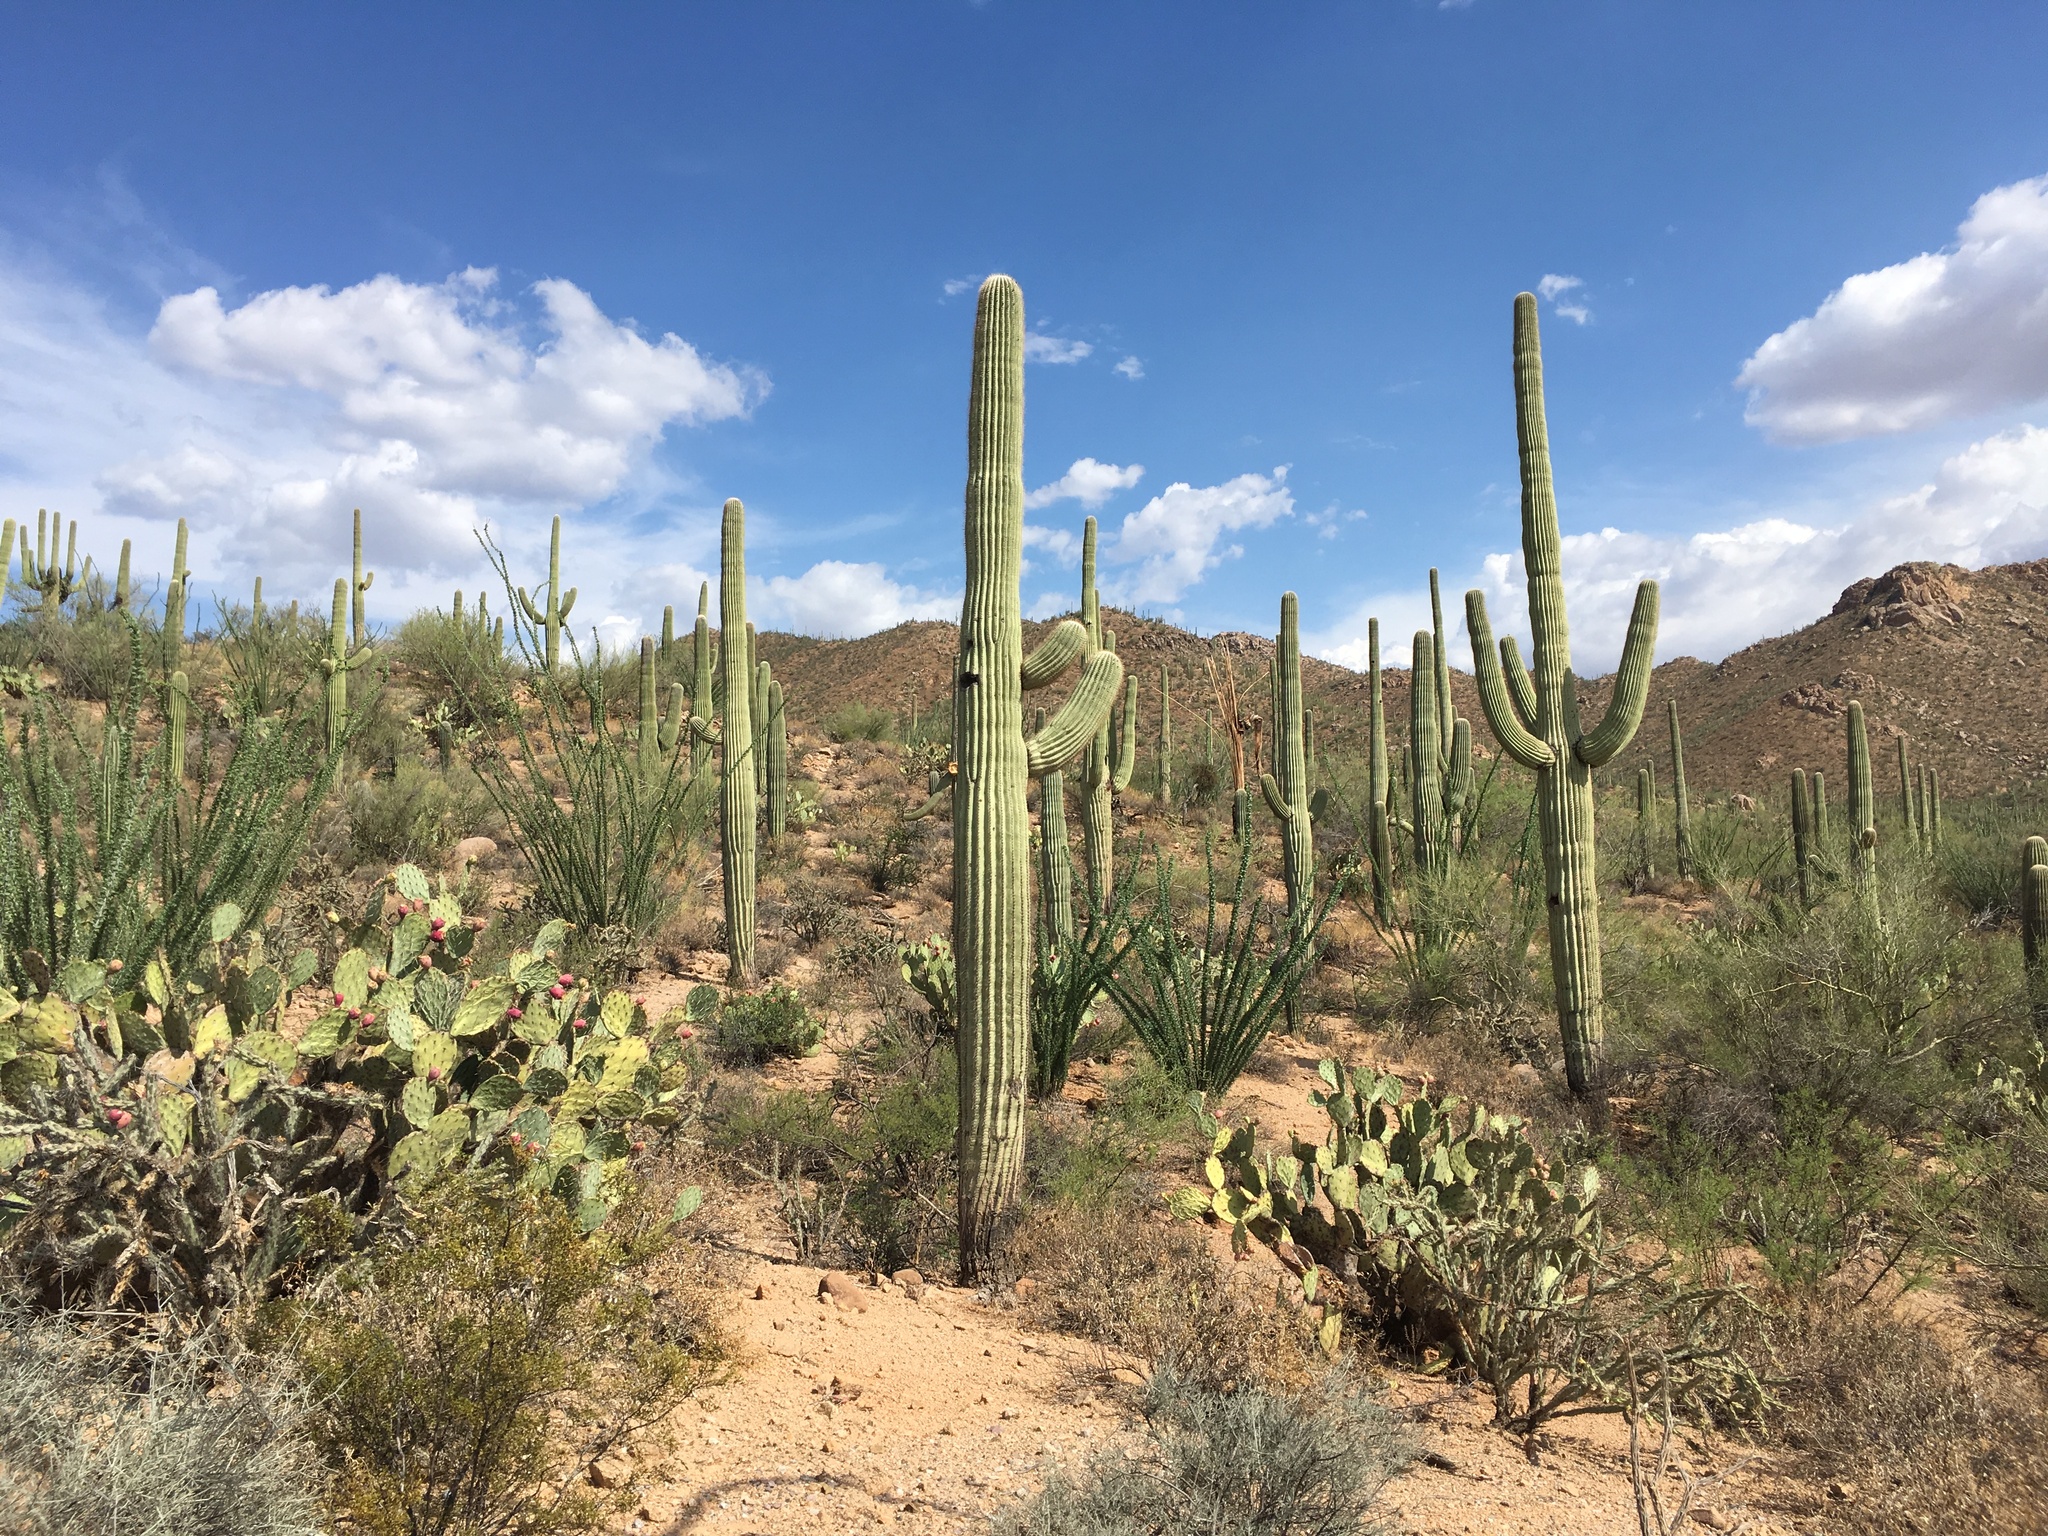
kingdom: Plantae
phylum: Tracheophyta
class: Magnoliopsida
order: Ericales
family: Fouquieriaceae
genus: Fouquieria
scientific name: Fouquieria splendens
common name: Vine-cactus
